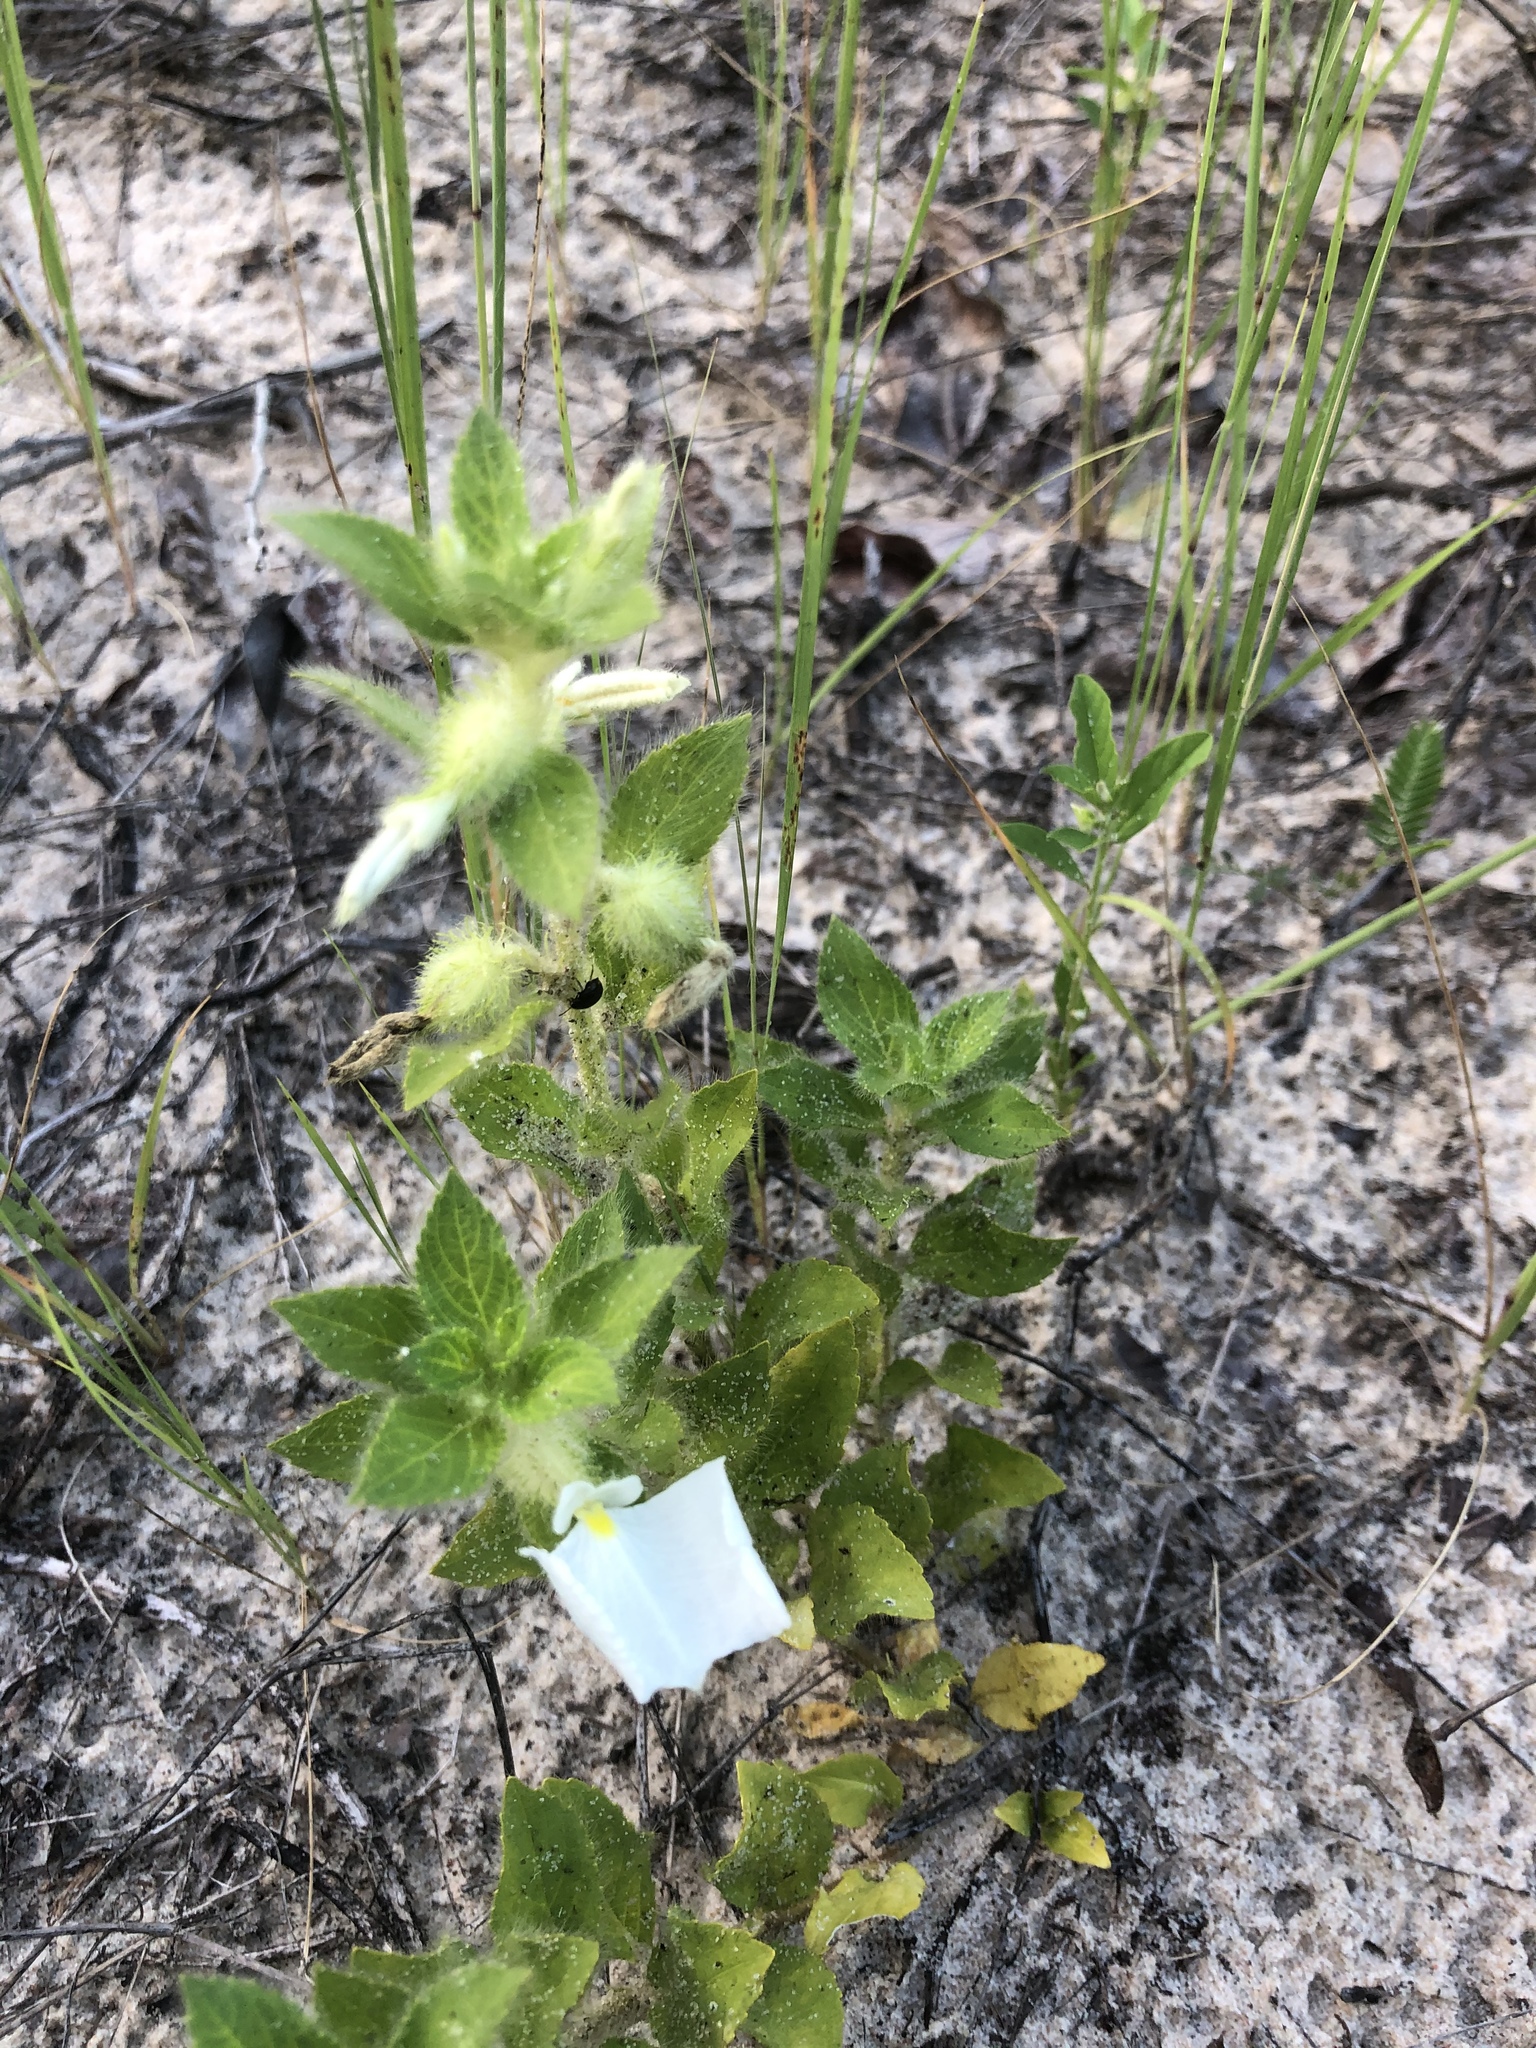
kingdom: Plantae
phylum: Tracheophyta
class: Magnoliopsida
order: Malpighiales
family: Violaceae
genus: Pombalia
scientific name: Pombalia calceolaria
